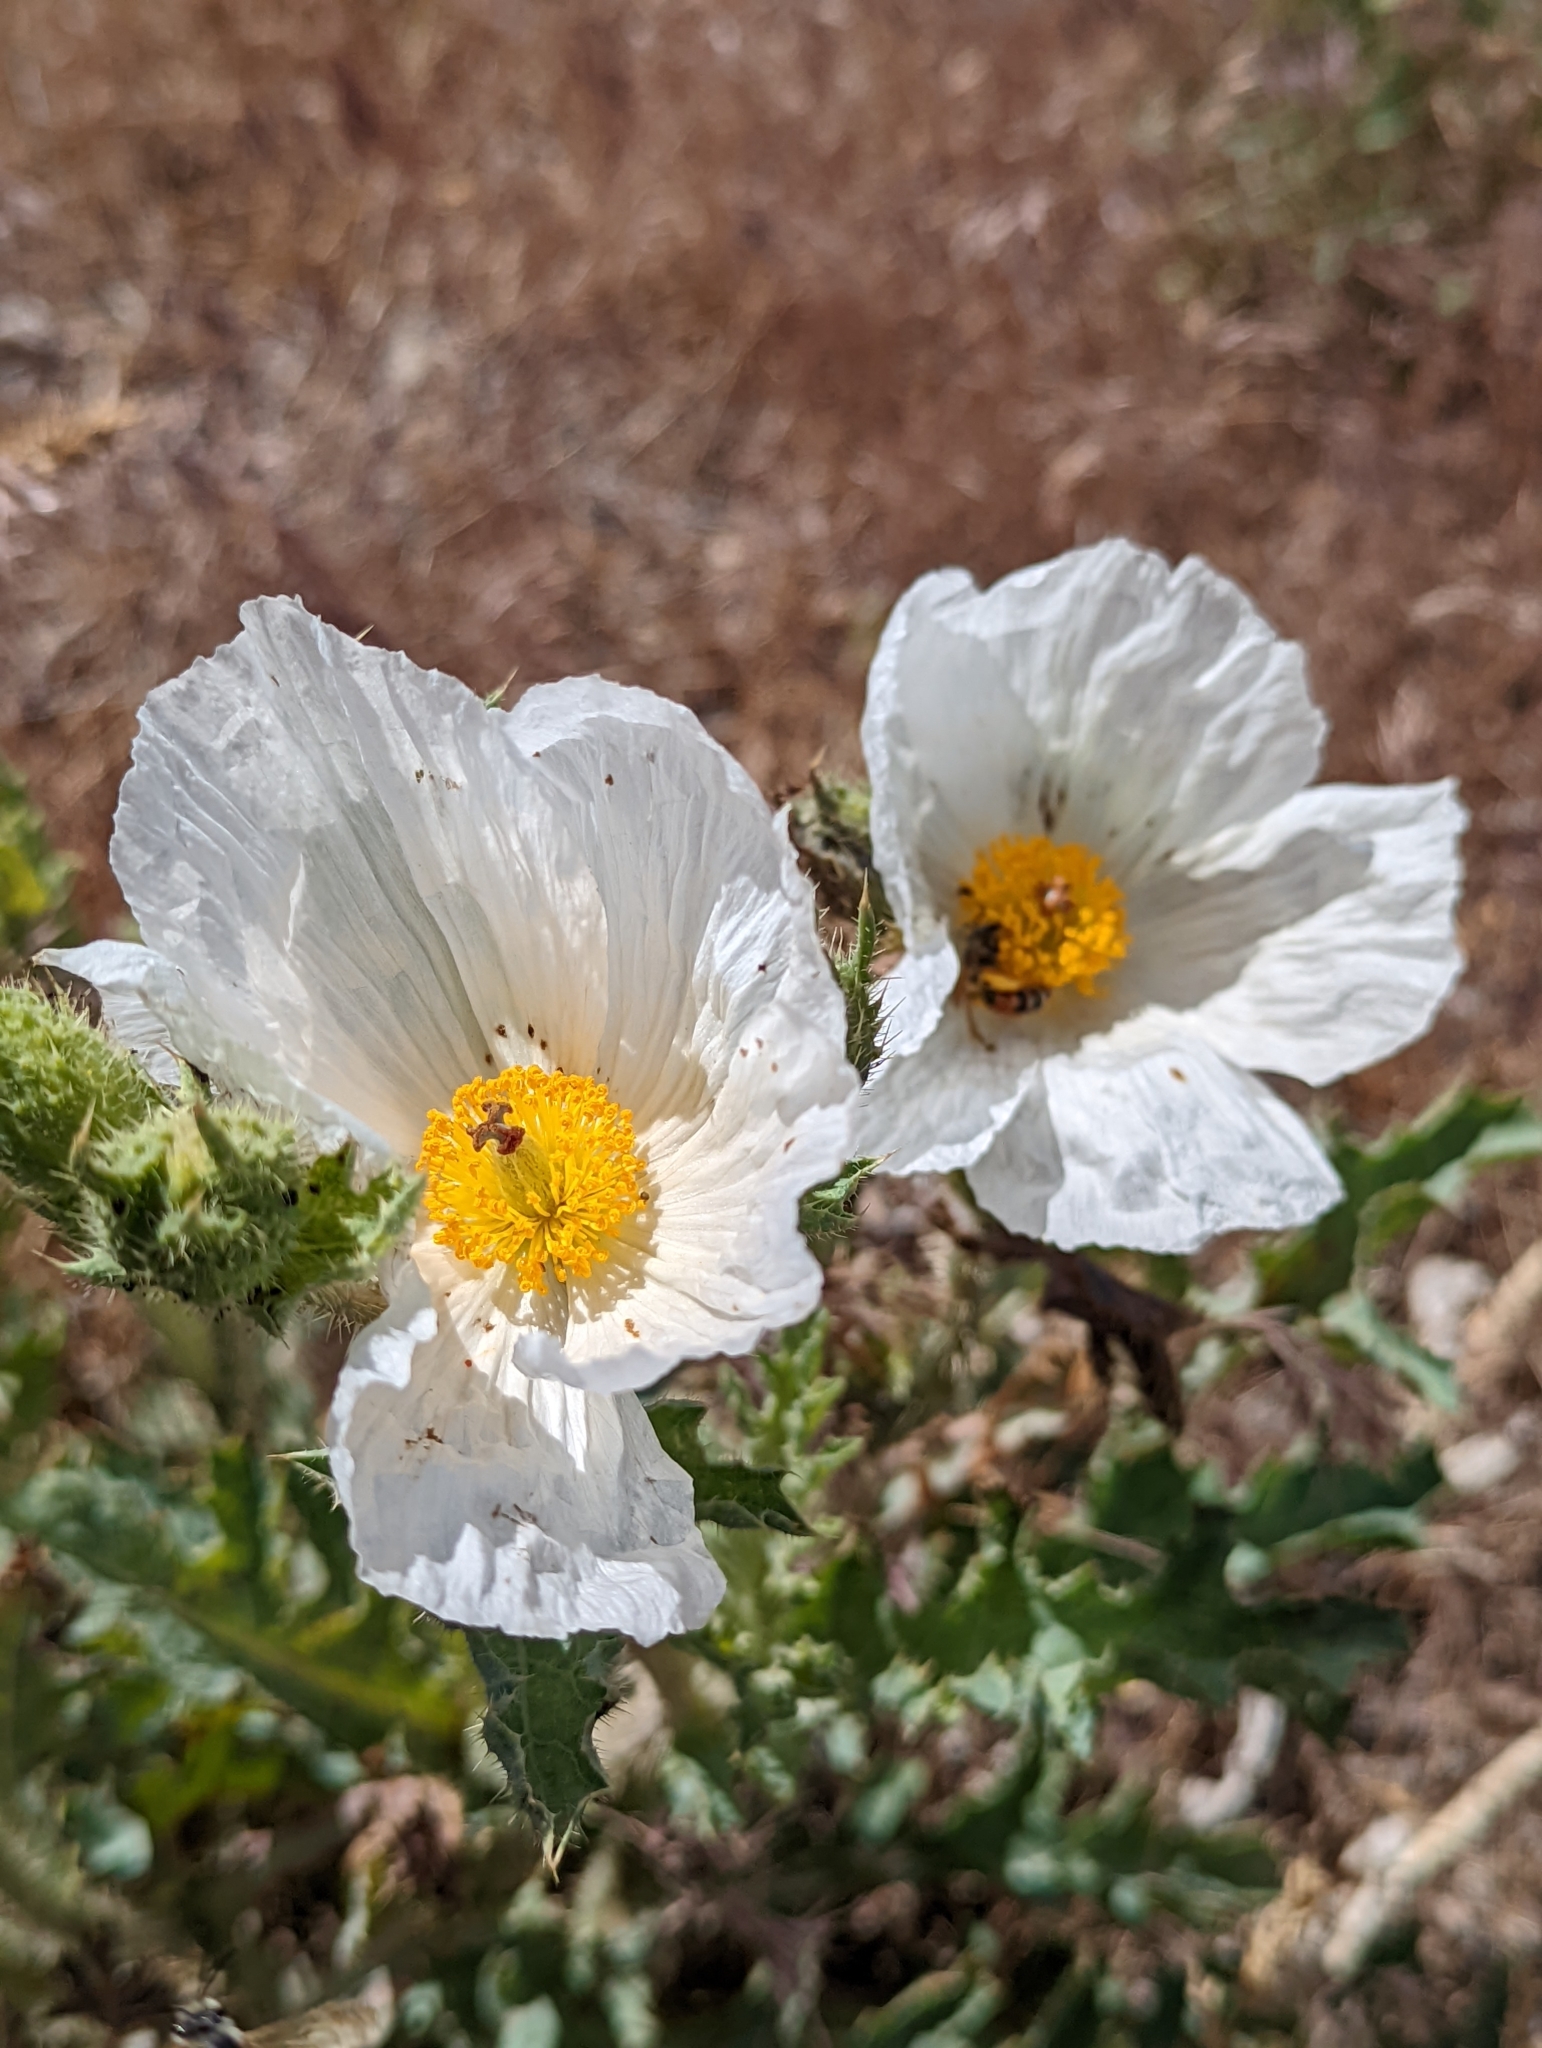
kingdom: Plantae
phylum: Tracheophyta
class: Magnoliopsida
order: Ranunculales
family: Papaveraceae
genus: Argemone
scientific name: Argemone munita
